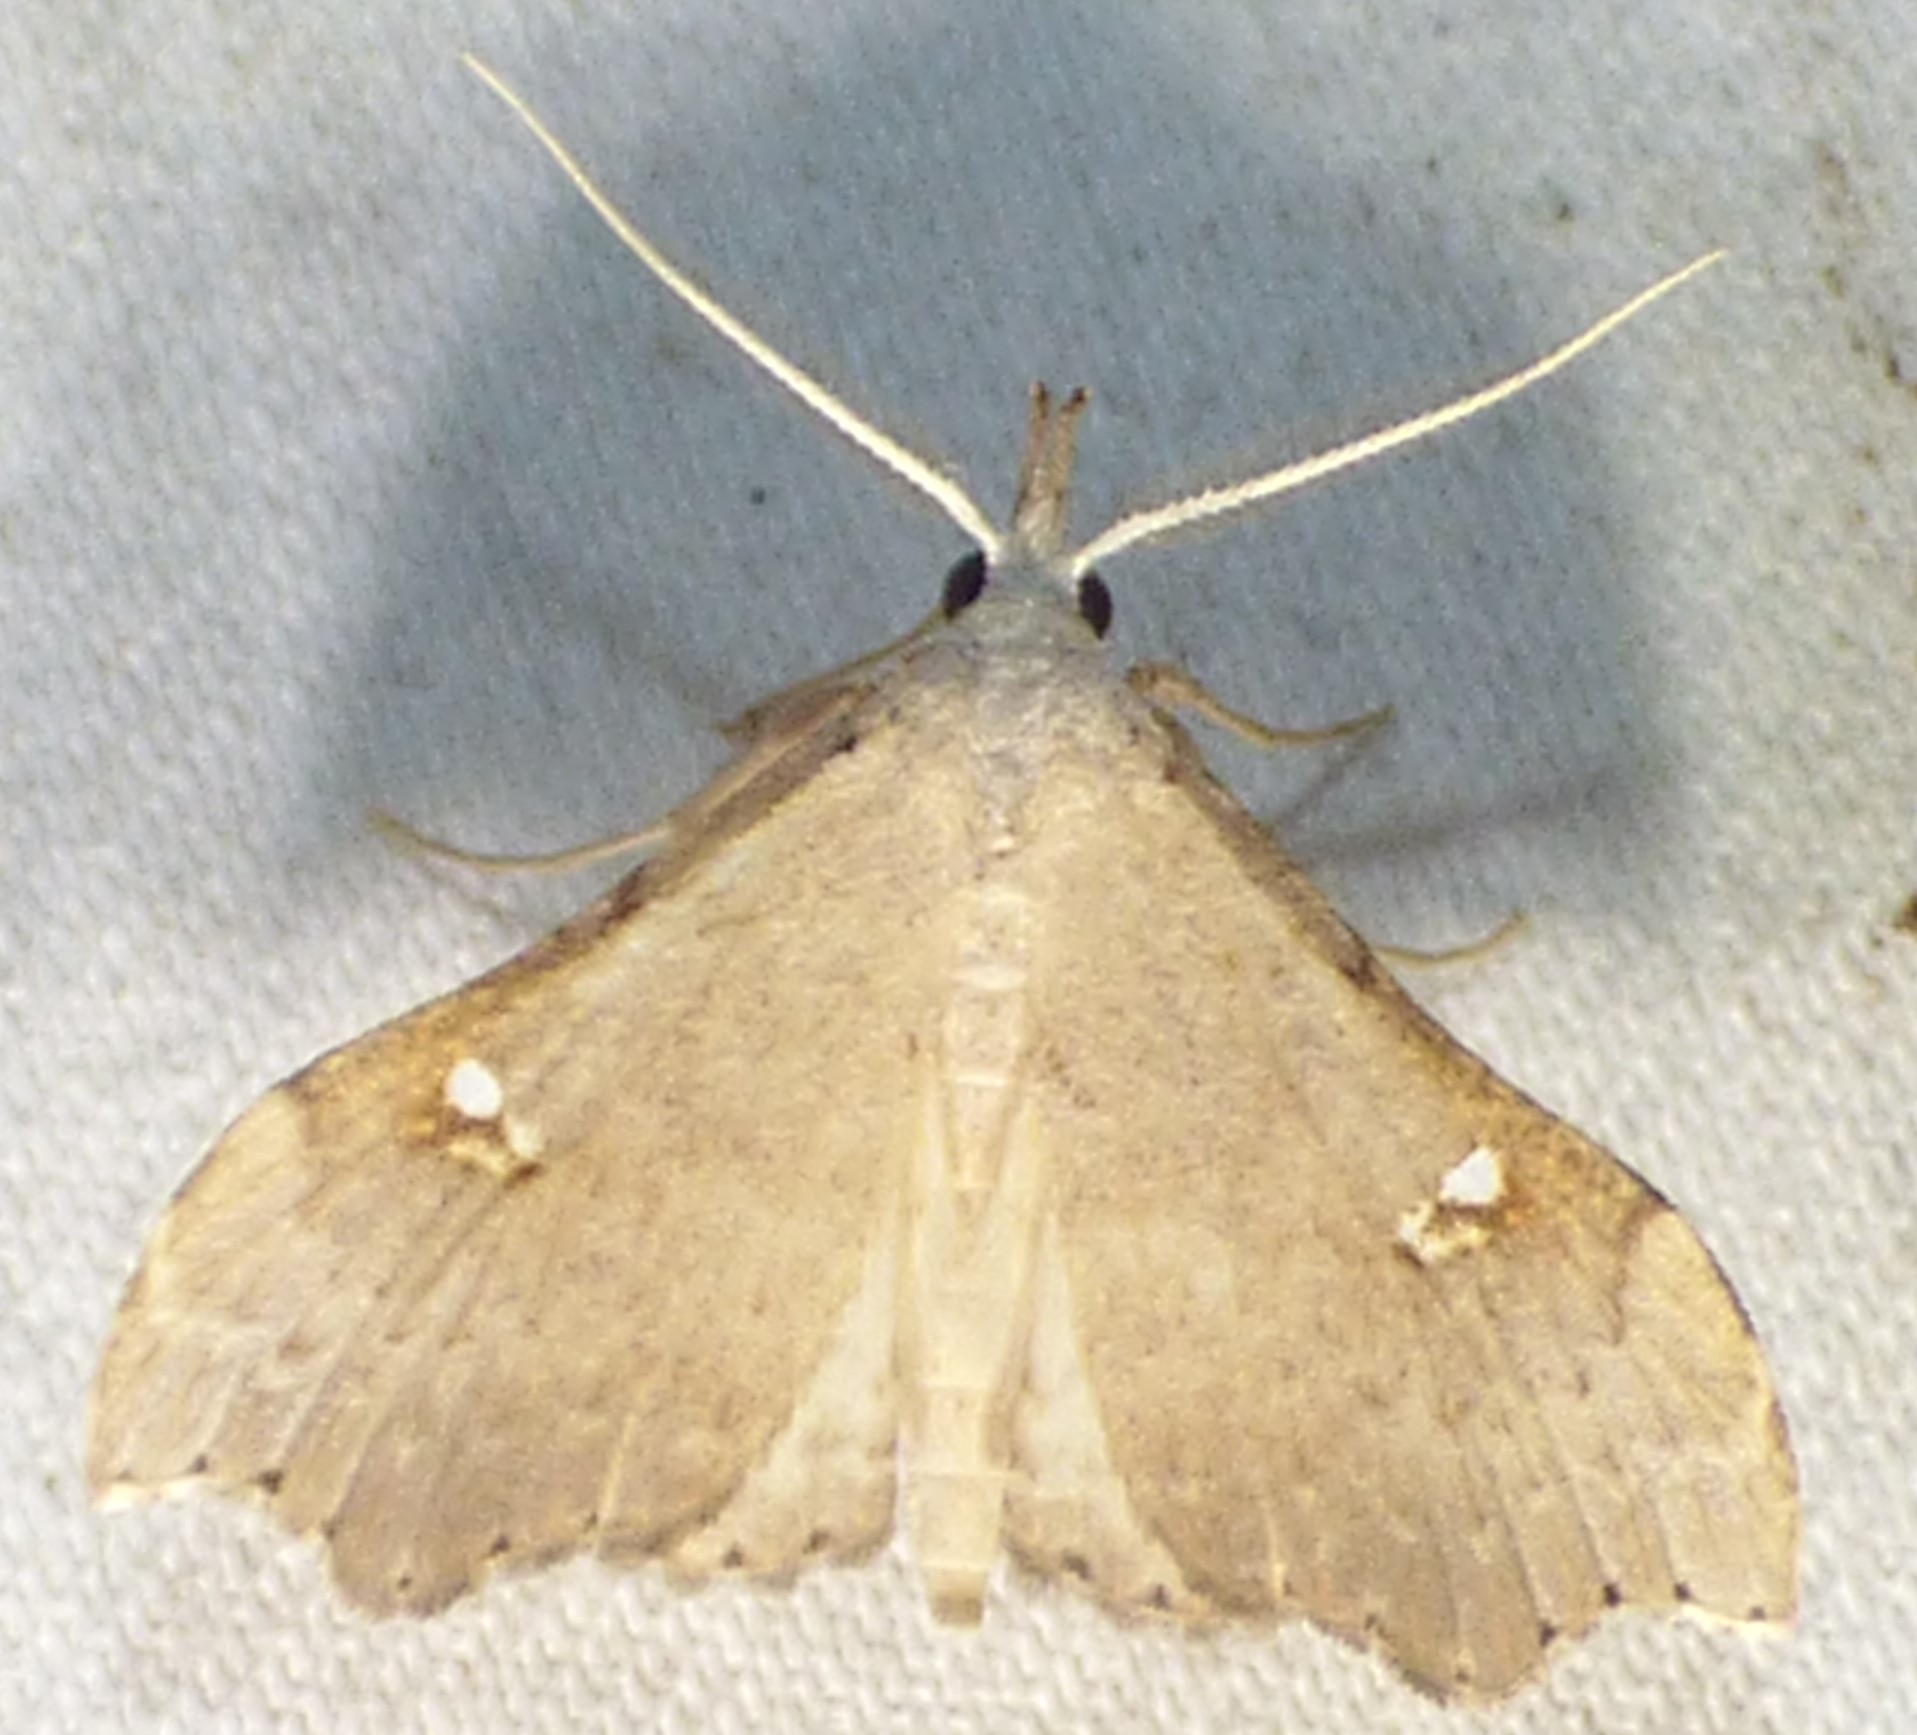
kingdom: Animalia
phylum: Arthropoda
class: Insecta
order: Lepidoptera
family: Erebidae
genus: Redectis
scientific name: Redectis vitrea
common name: White-spotted redectis
